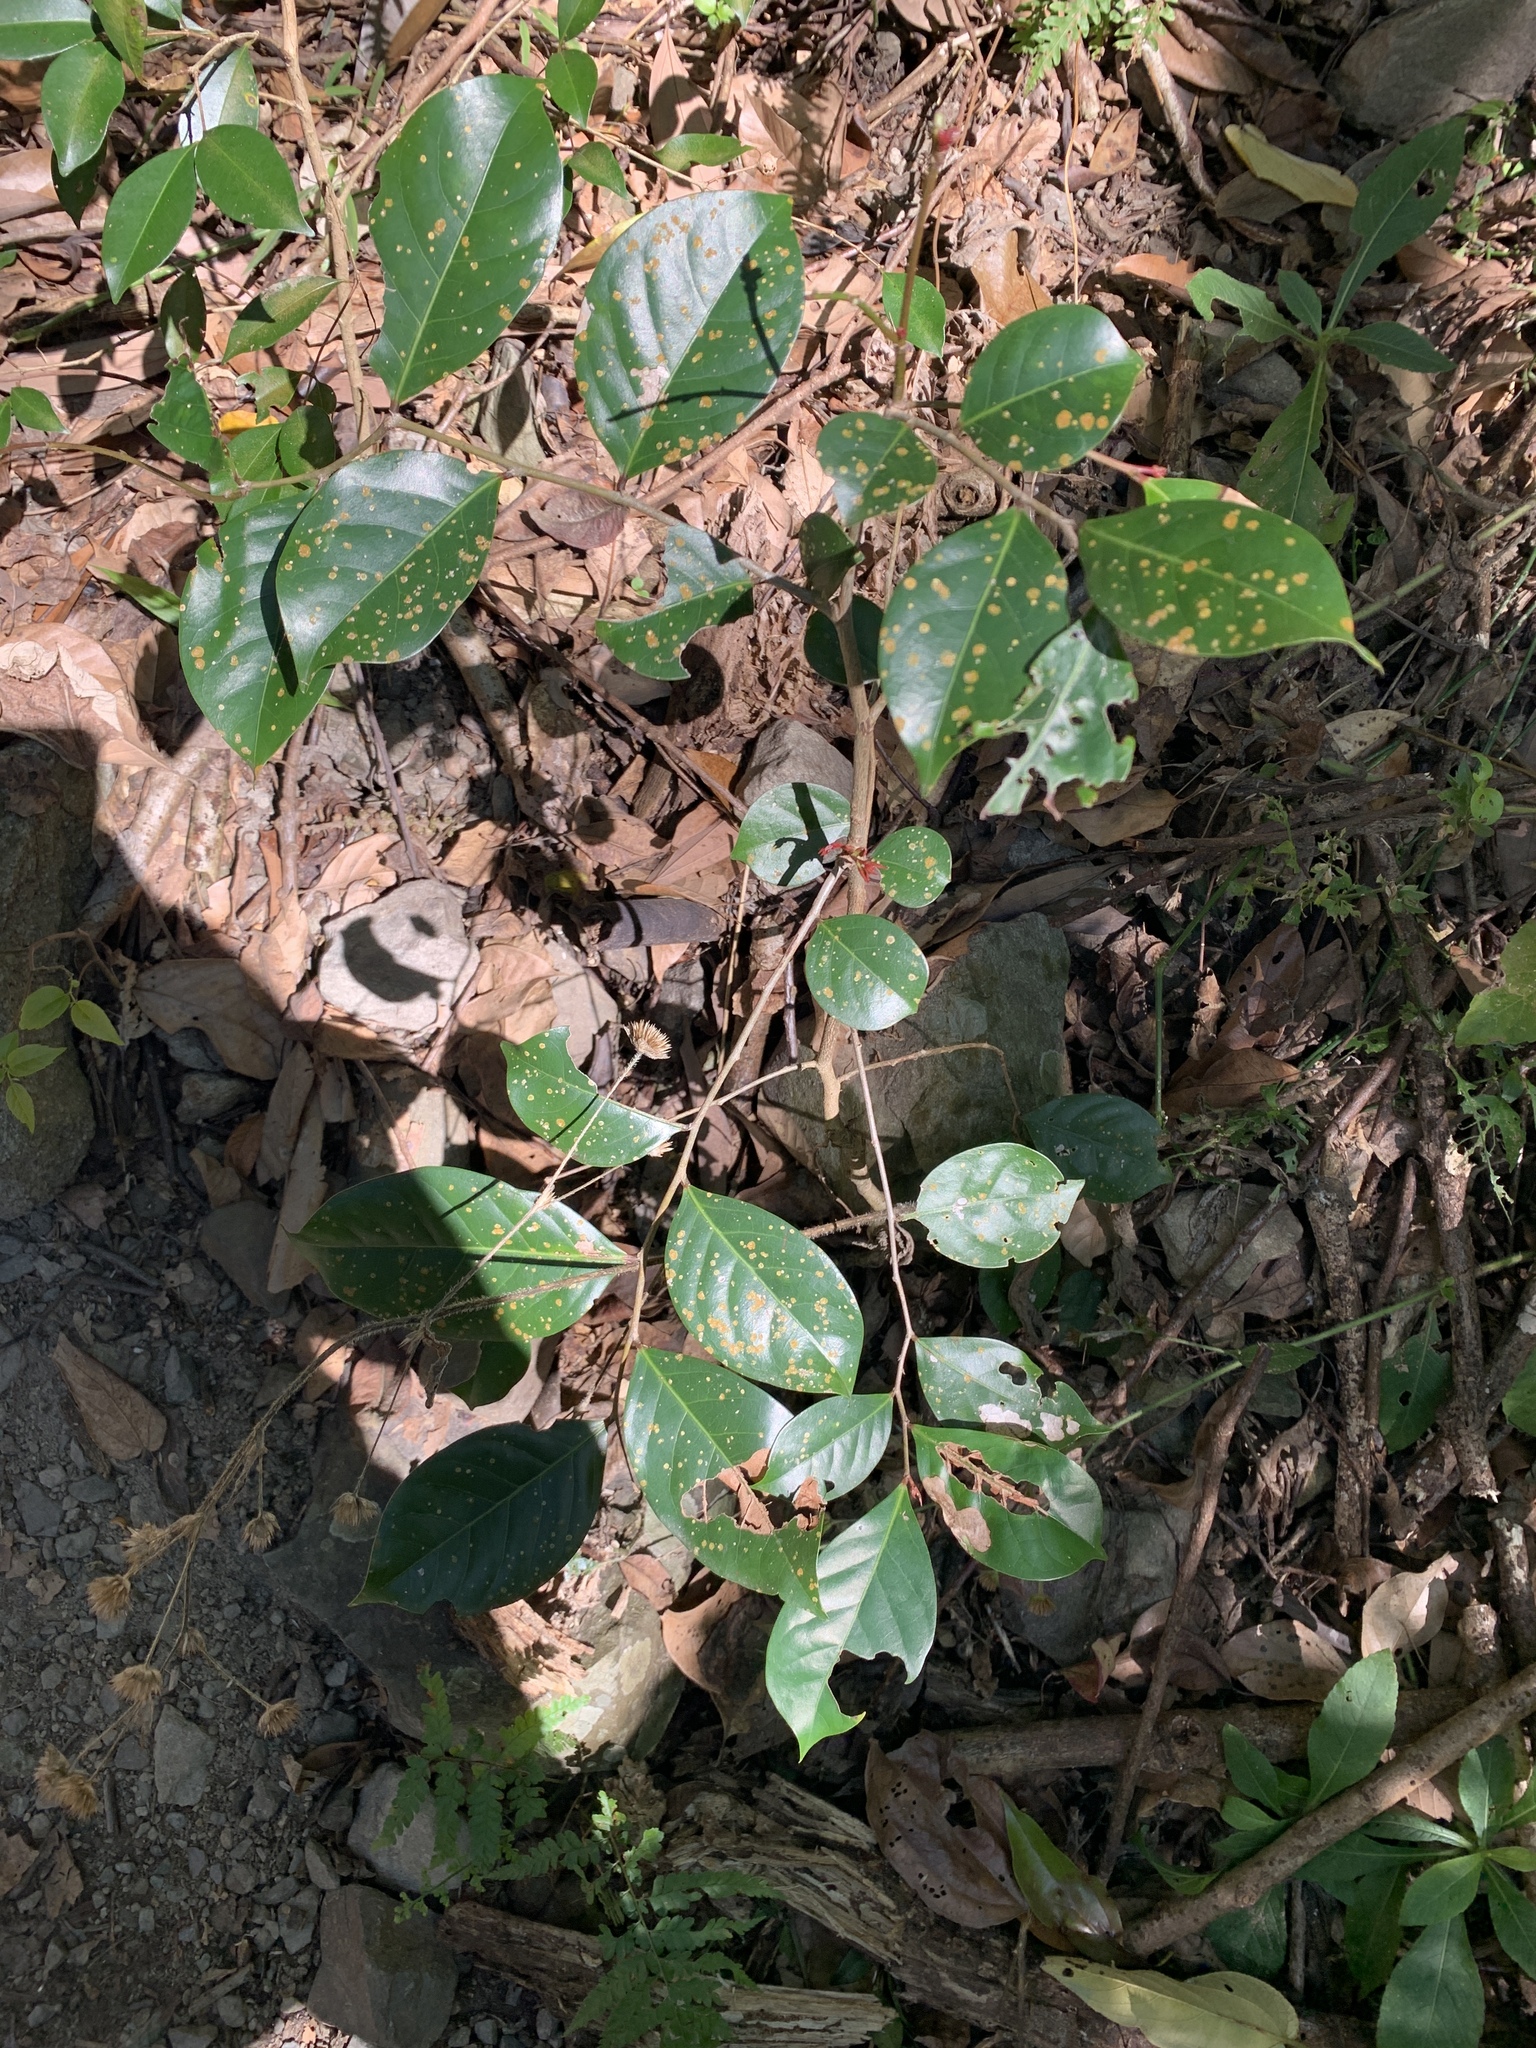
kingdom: Plantae
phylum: Tracheophyta
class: Magnoliopsida
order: Malpighiales
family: Phyllanthaceae
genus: Glochidion
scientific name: Glochidion rubrum
